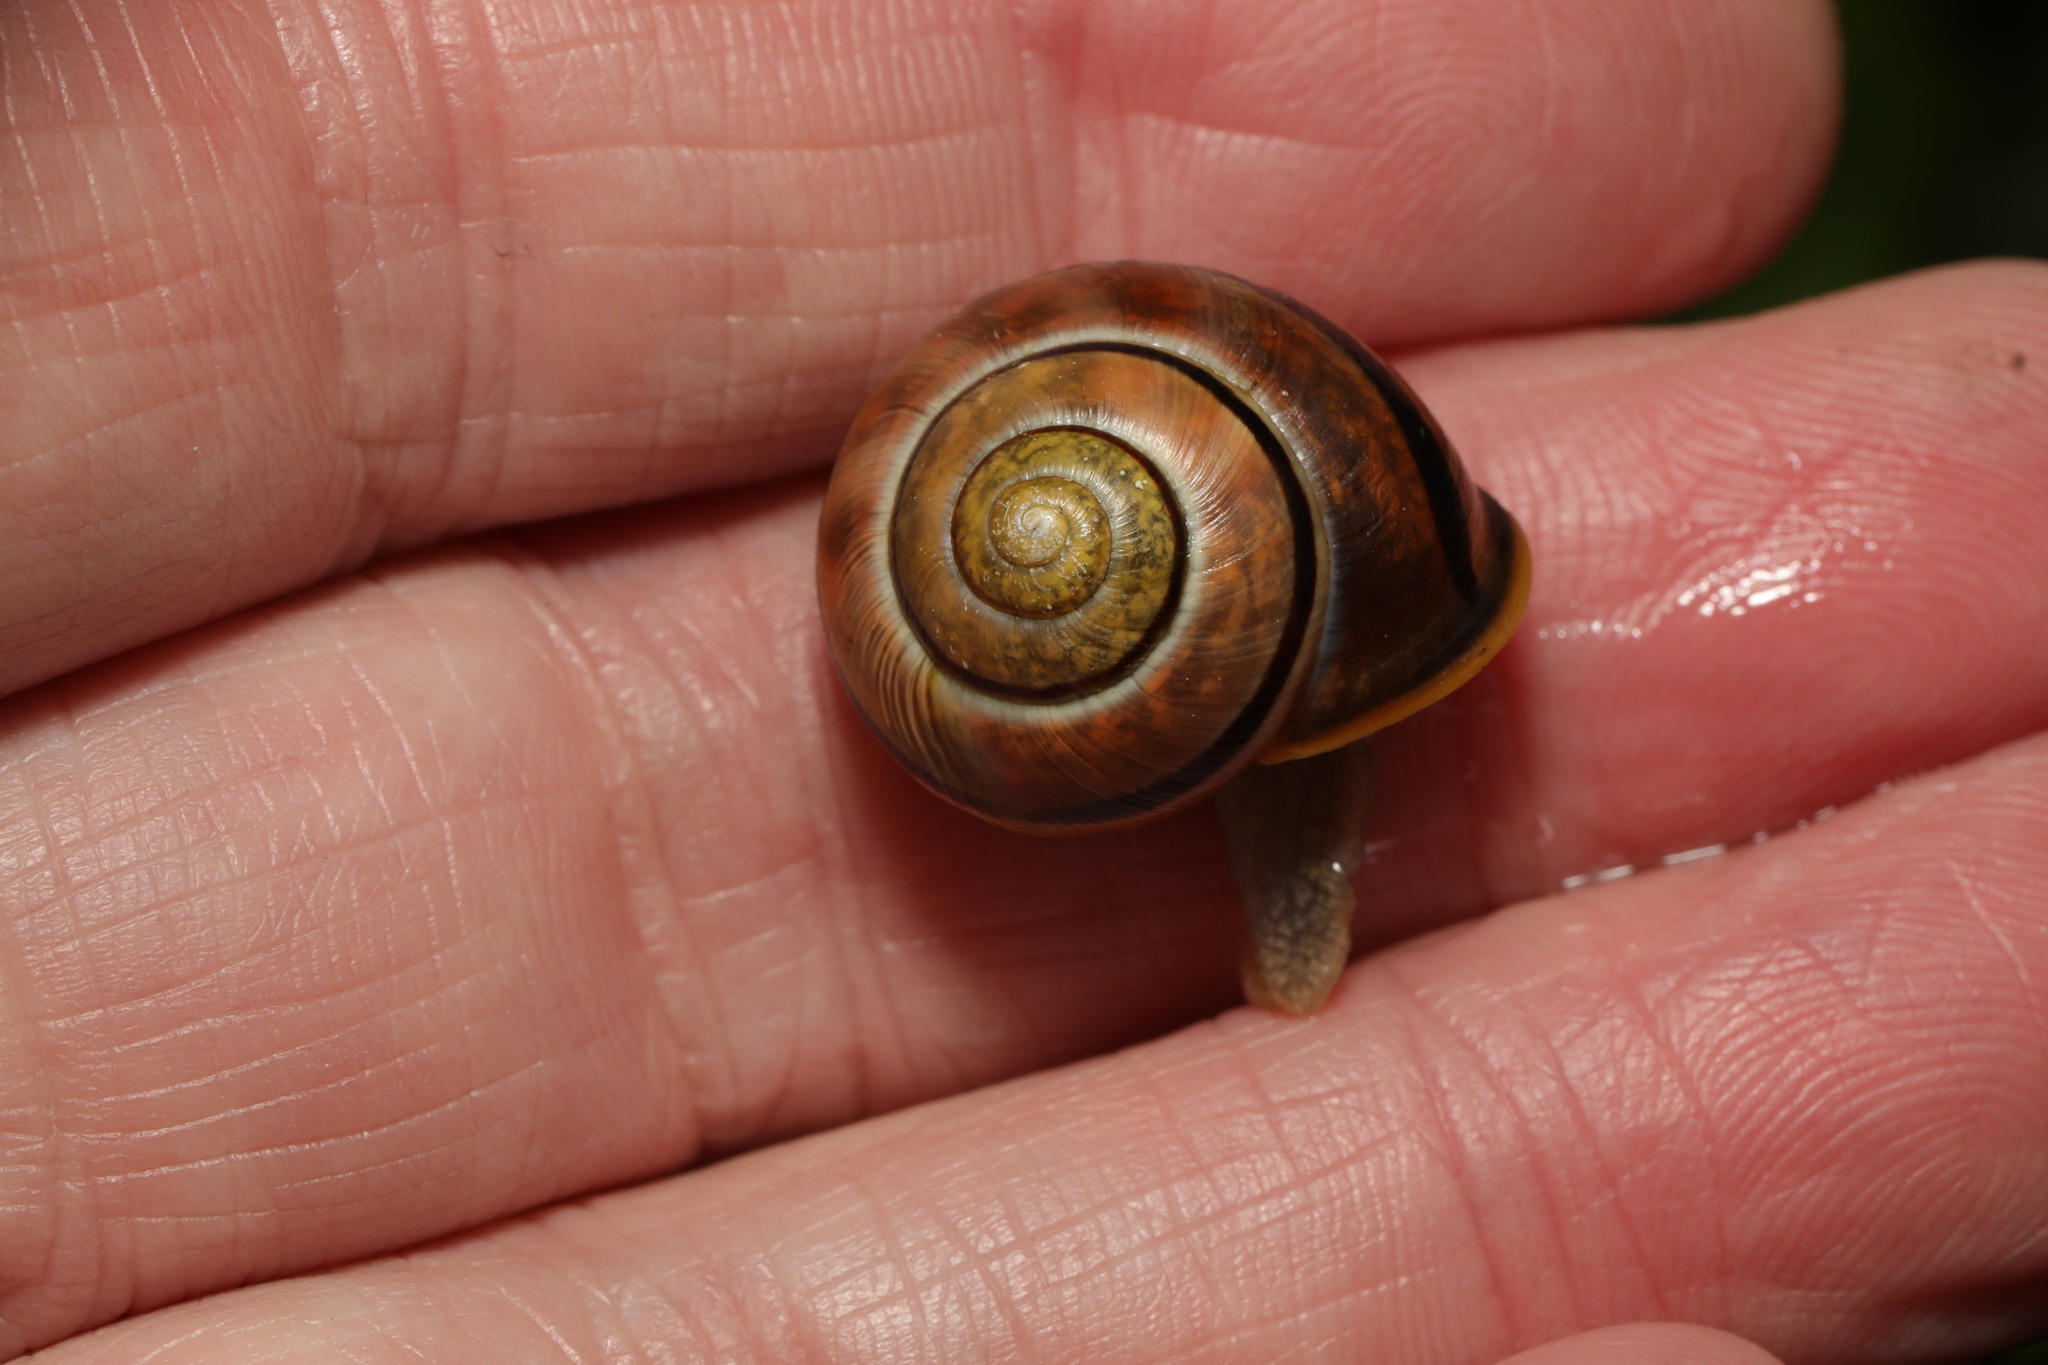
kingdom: Animalia
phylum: Mollusca
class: Gastropoda
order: Stylommatophora
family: Helicidae
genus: Cepaea
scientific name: Cepaea nemoralis
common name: Grovesnail
